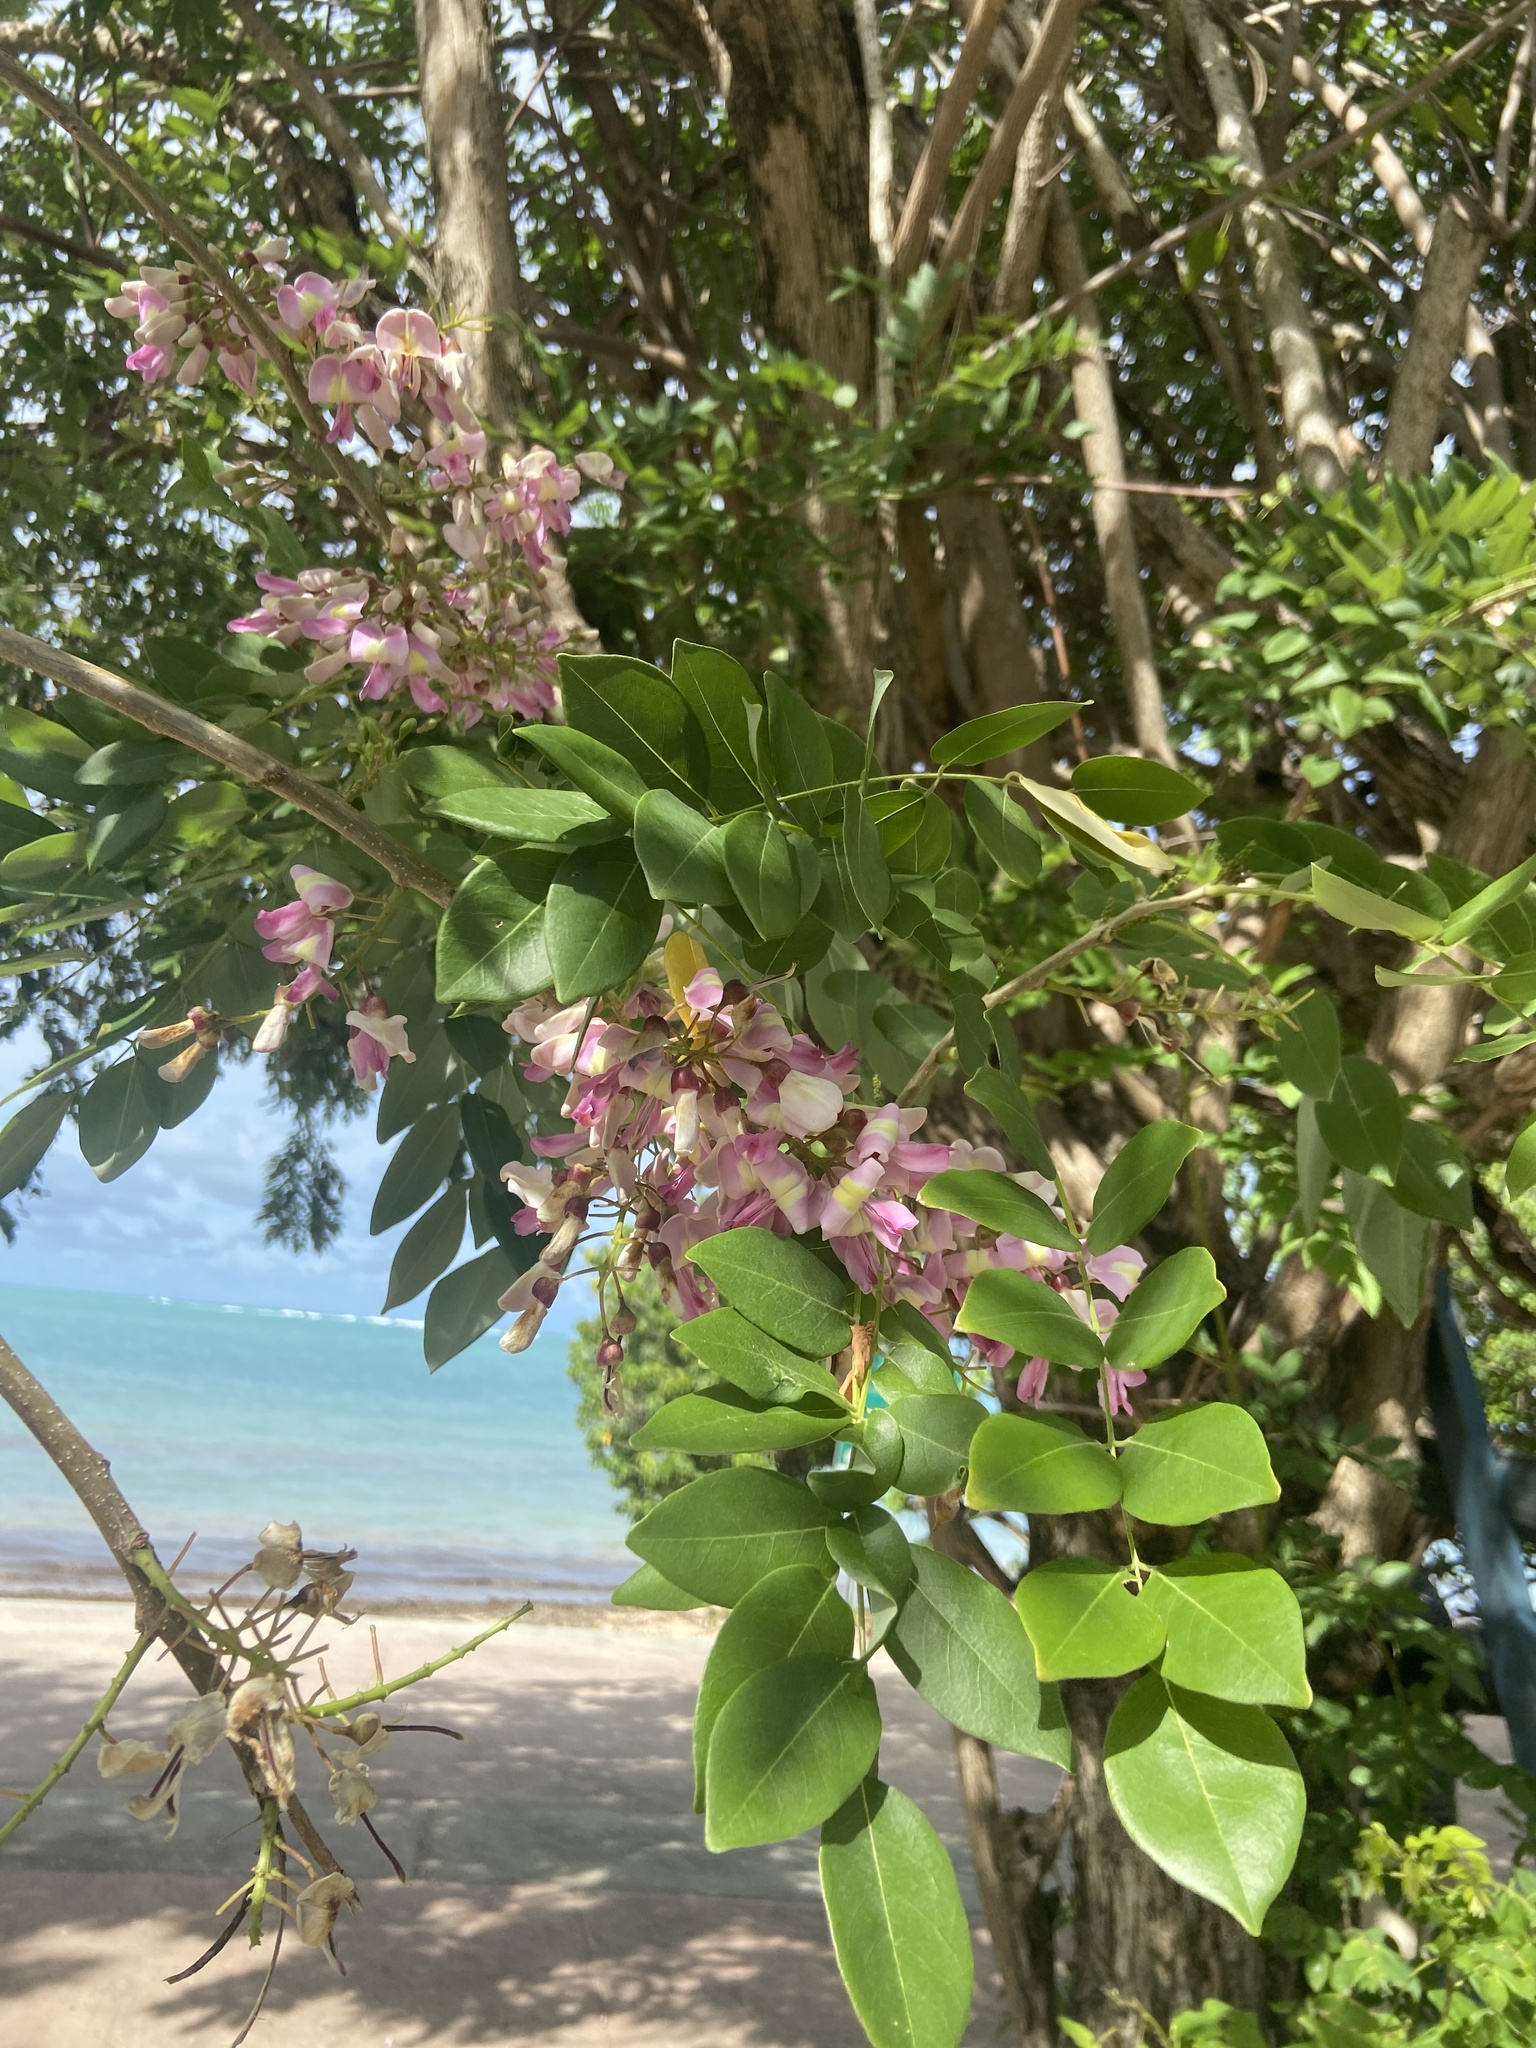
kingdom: Plantae
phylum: Tracheophyta
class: Magnoliopsida
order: Fabales
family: Fabaceae
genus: Gliricidia
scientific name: Gliricidia sepium
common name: Quickstick
